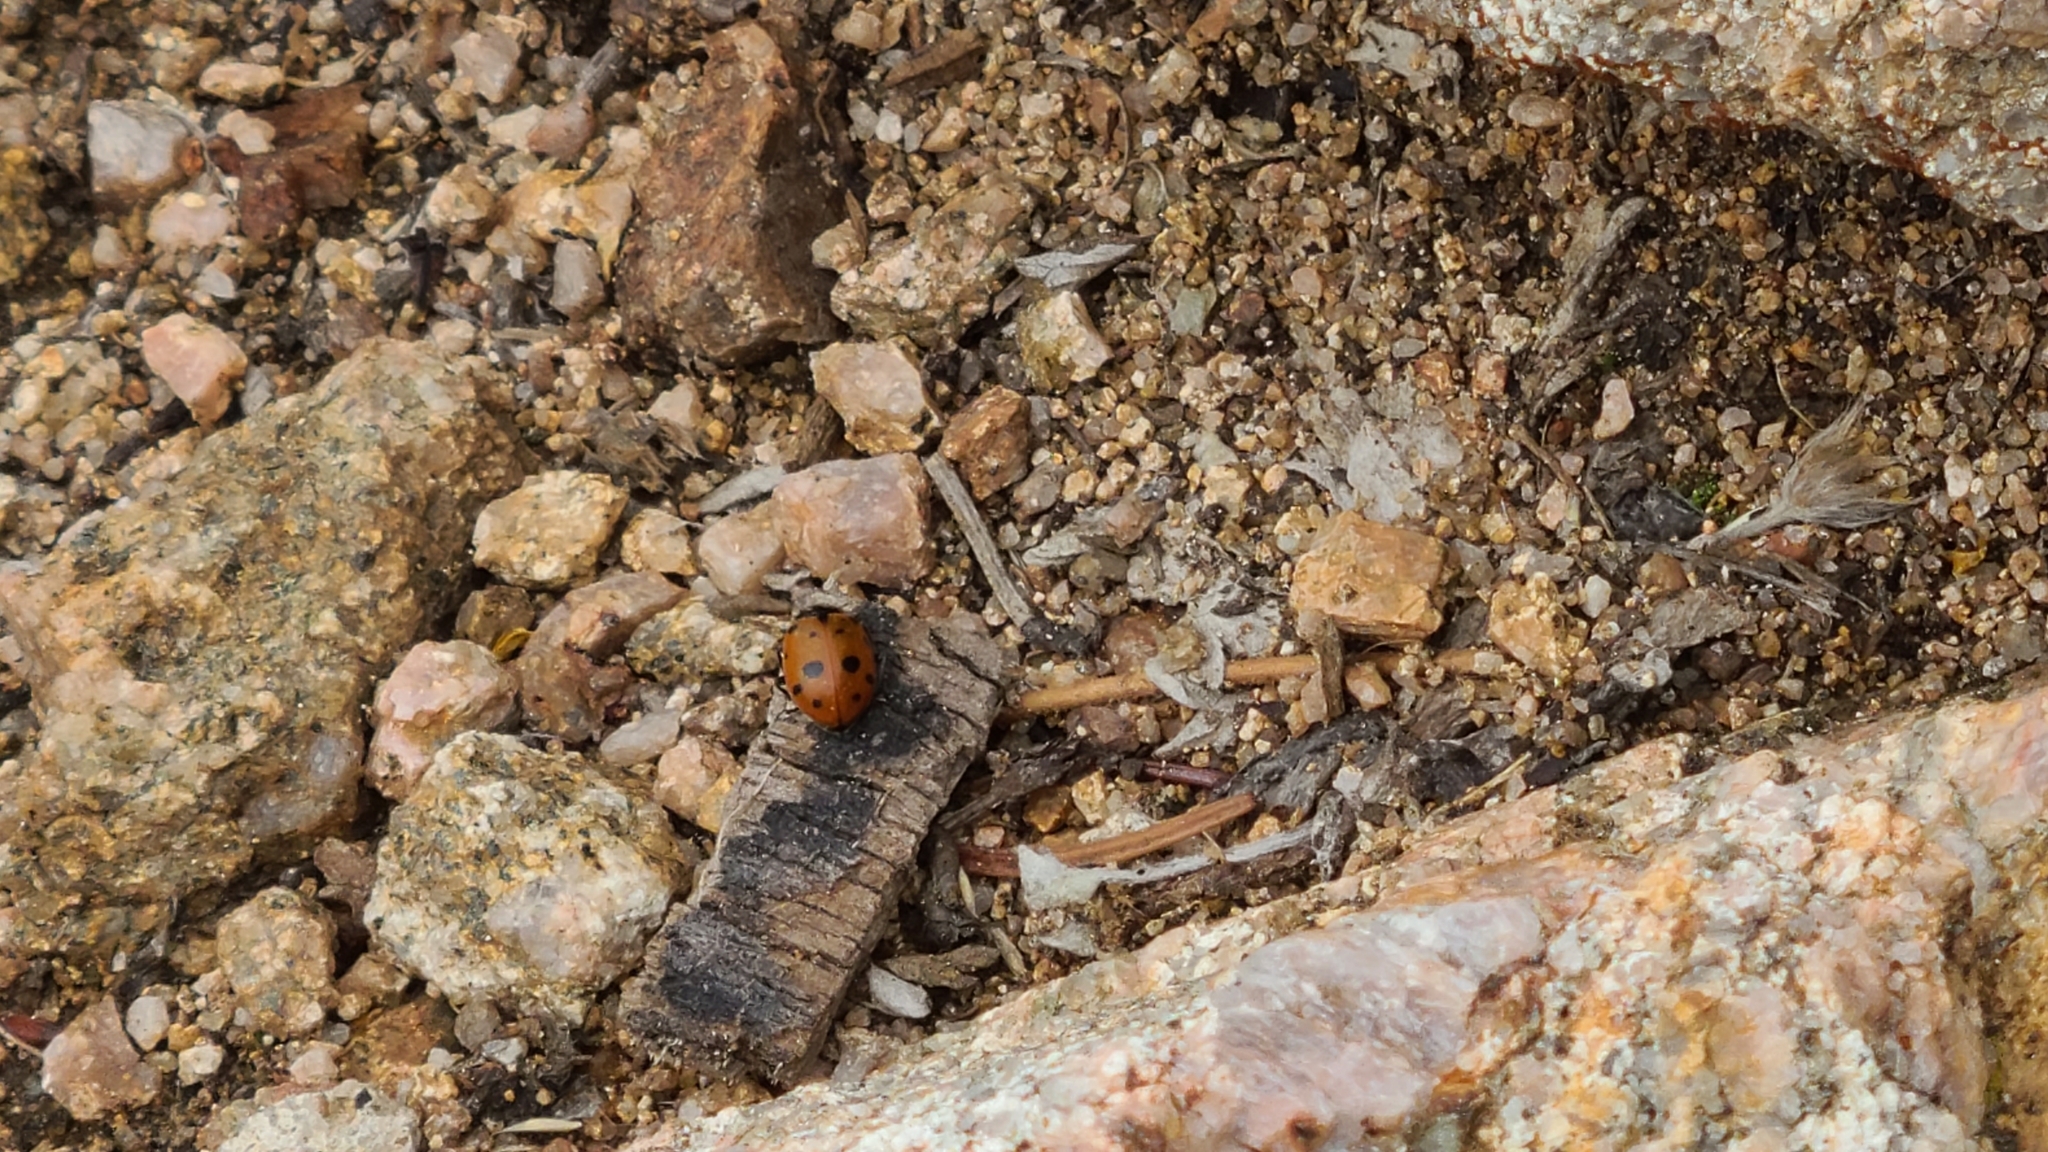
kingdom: Animalia
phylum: Arthropoda
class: Insecta
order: Coleoptera
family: Coccinellidae
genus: Hippodamia
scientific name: Hippodamia convergens
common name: Convergent lady beetle
